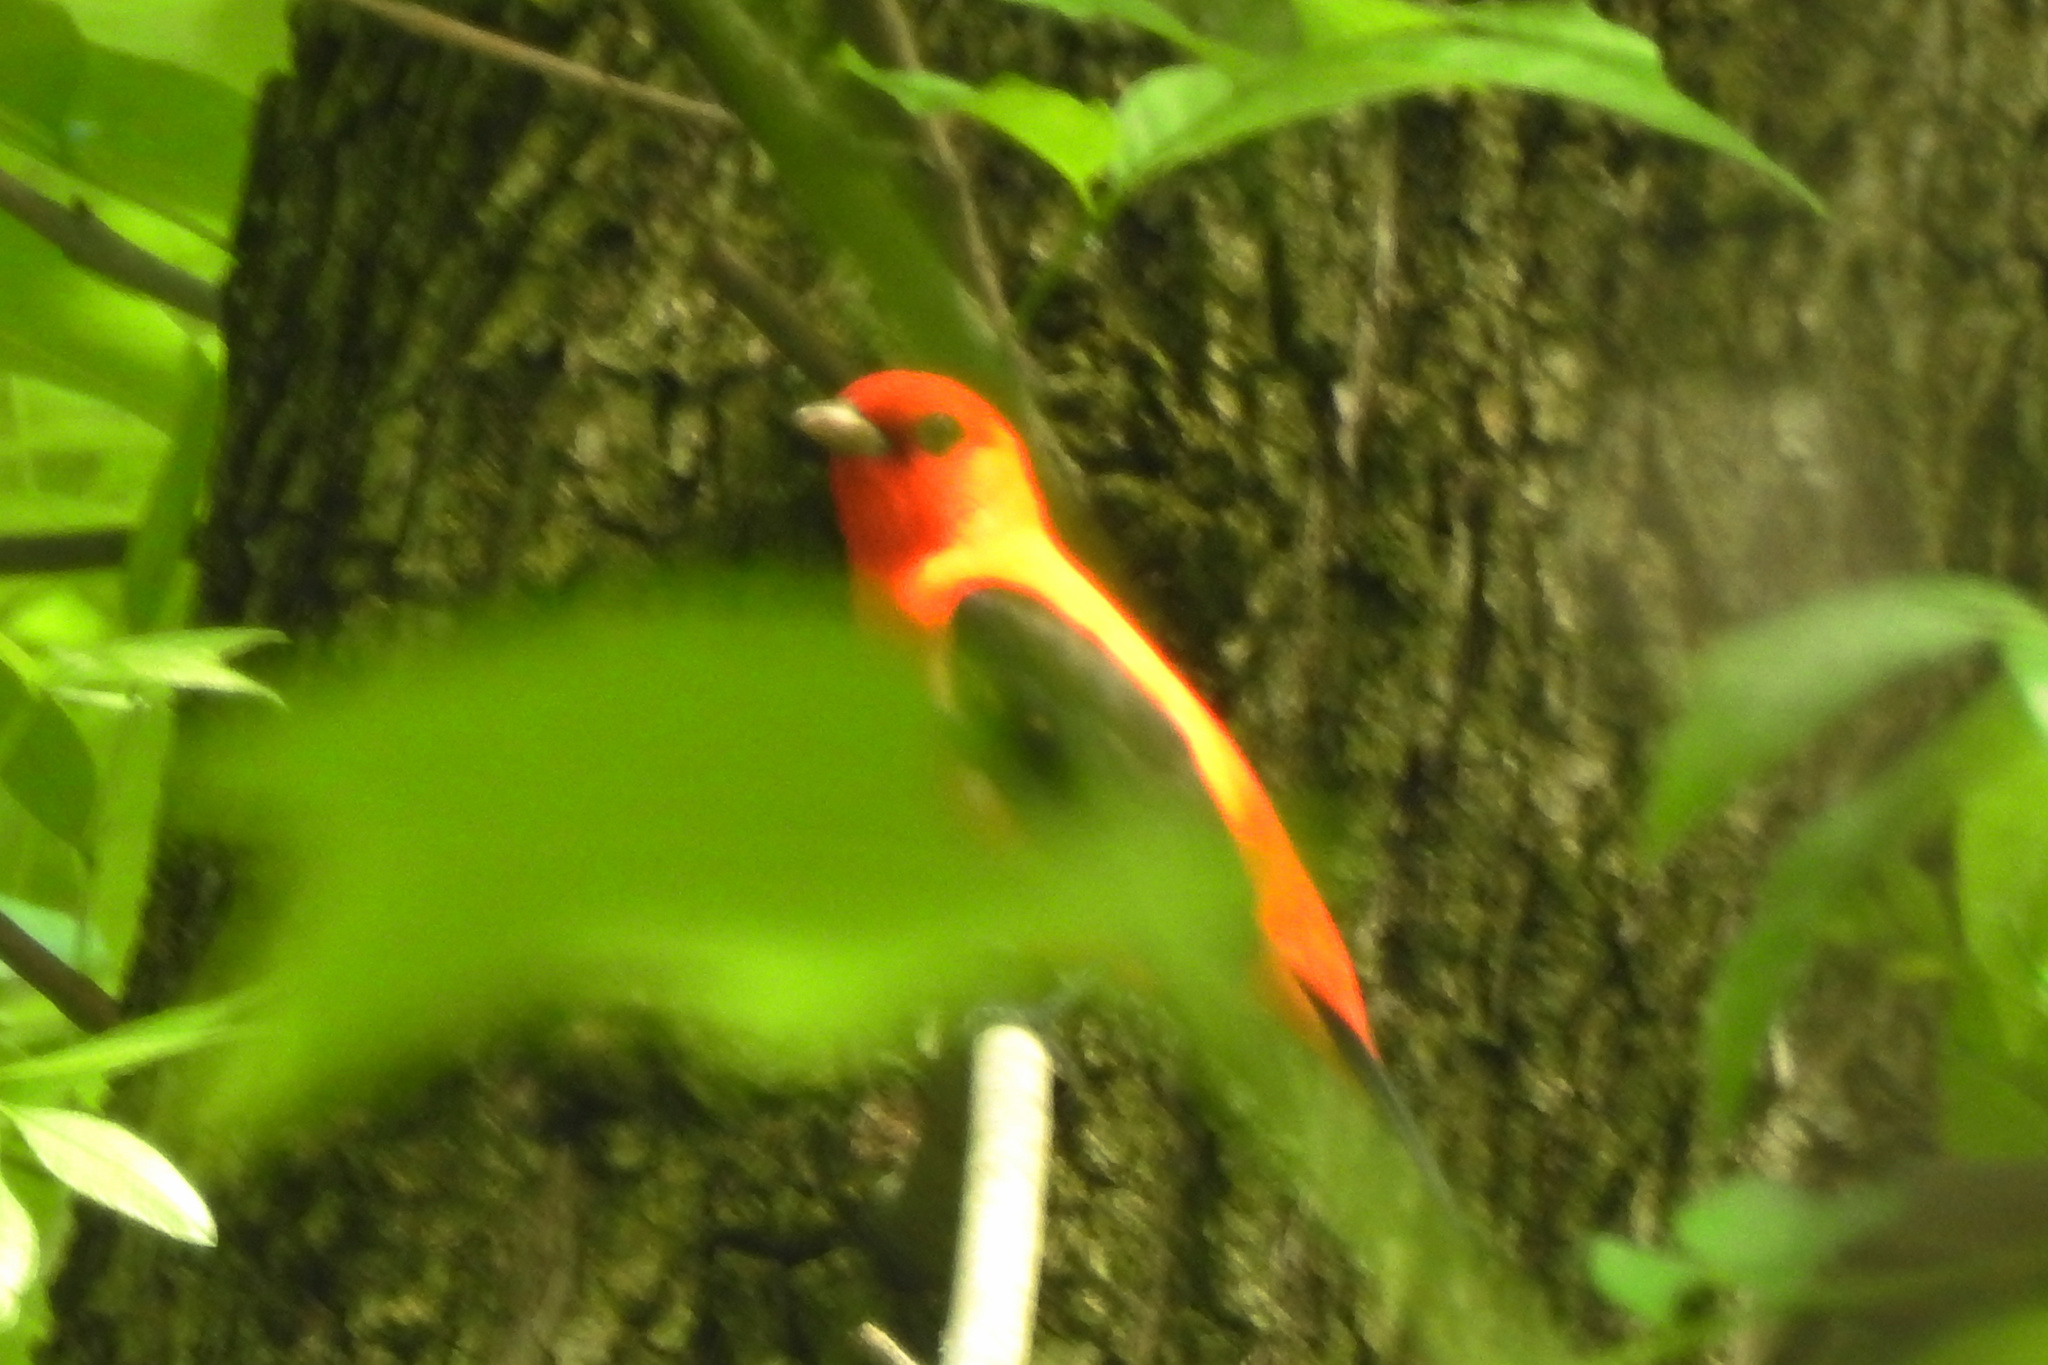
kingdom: Animalia
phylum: Chordata
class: Aves
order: Passeriformes
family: Cardinalidae
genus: Piranga
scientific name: Piranga olivacea
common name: Scarlet tanager
